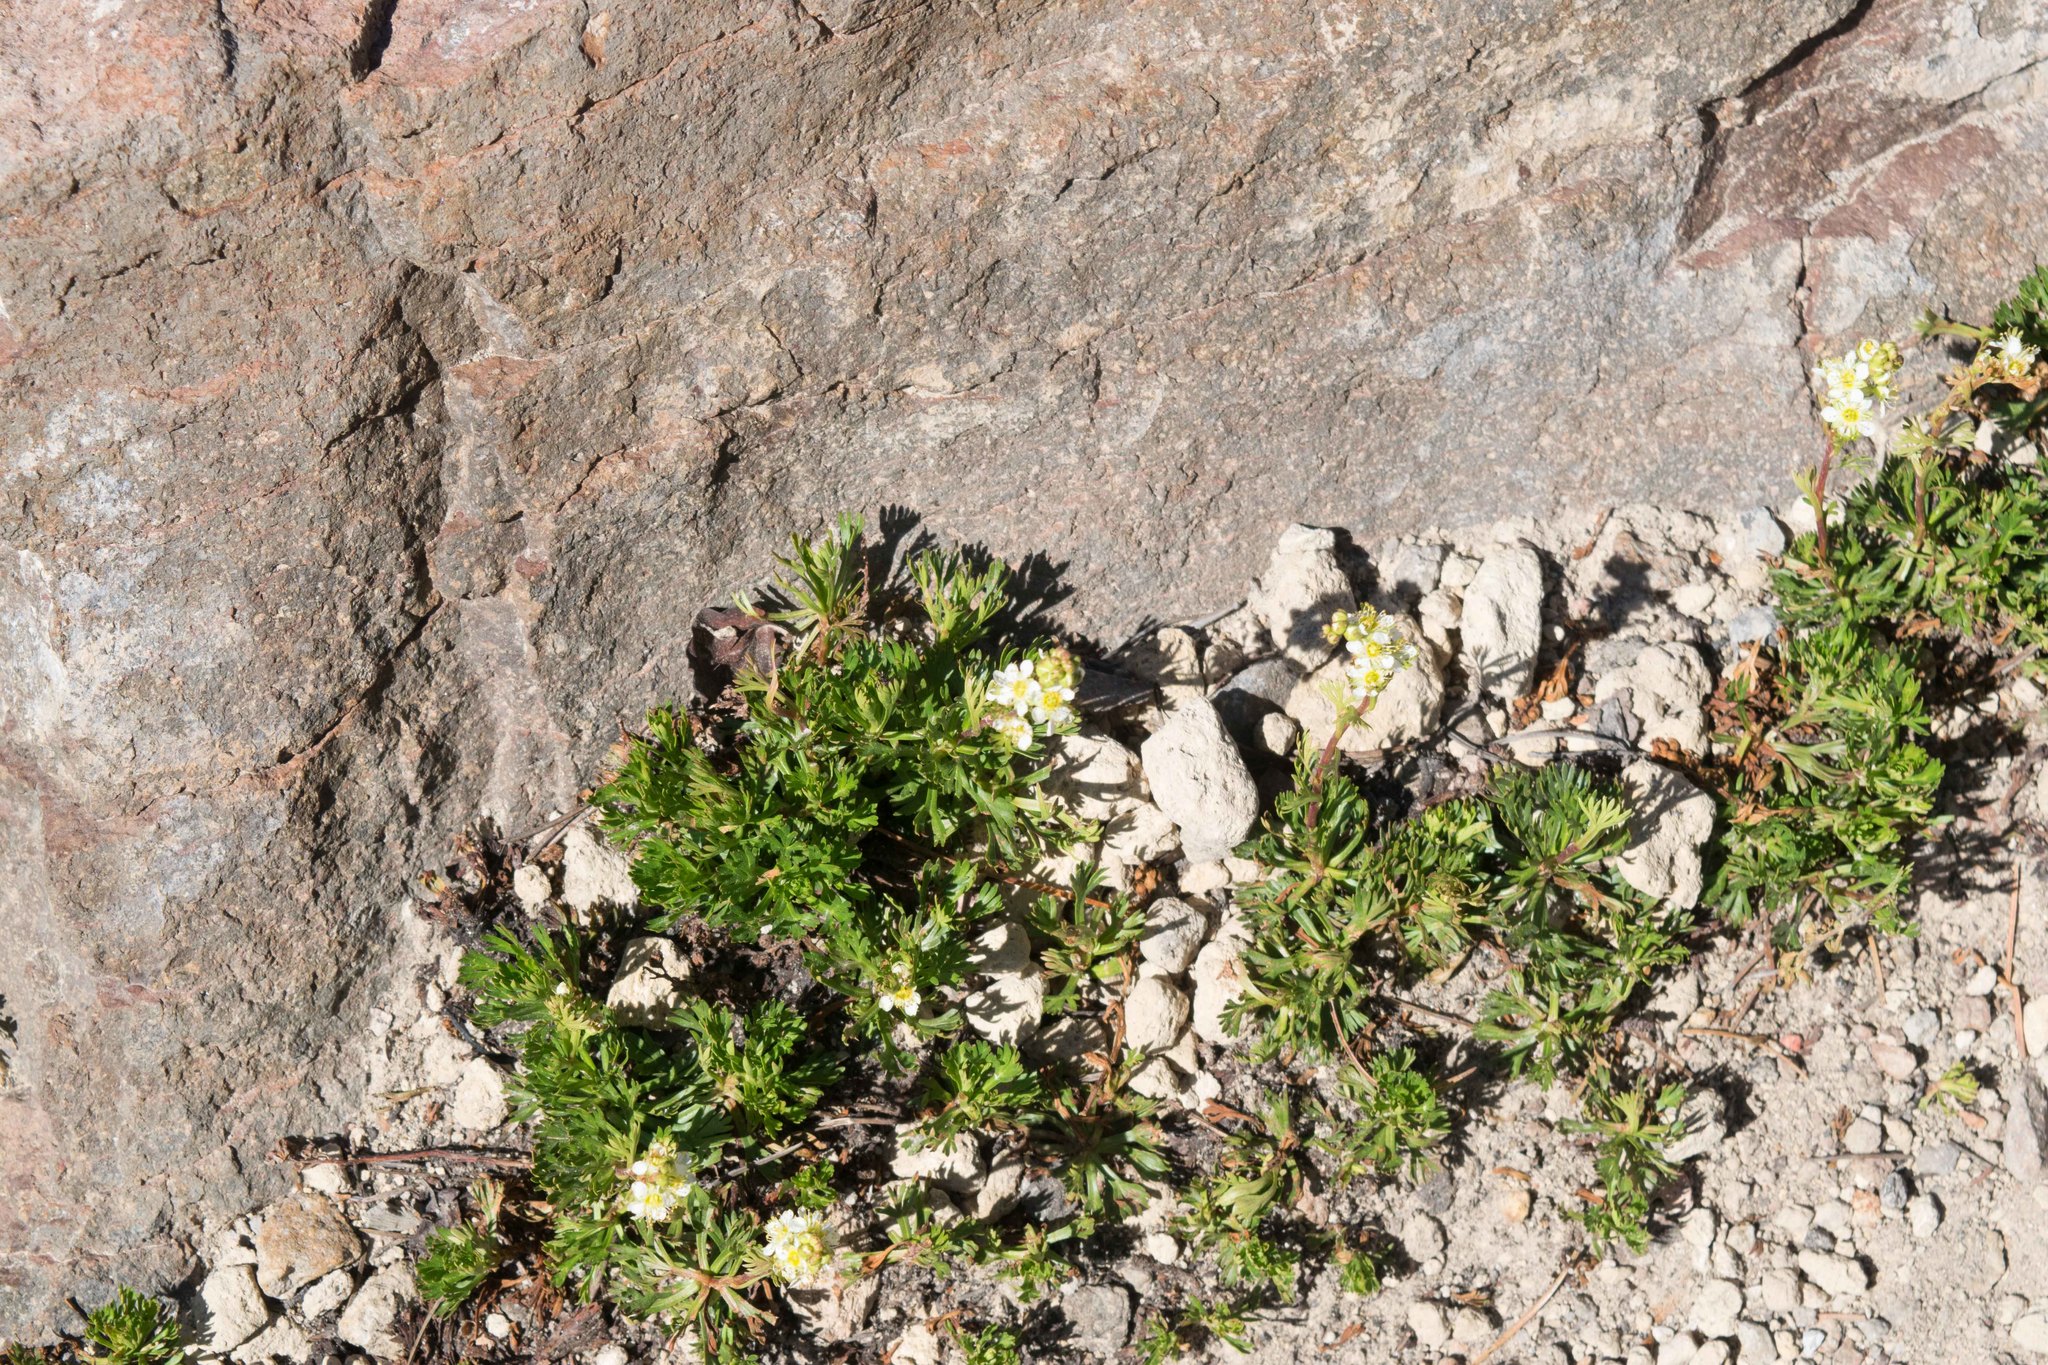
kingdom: Plantae
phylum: Tracheophyta
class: Magnoliopsida
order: Rosales
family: Rosaceae
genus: Luetkea
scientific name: Luetkea pectinata
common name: Partridgefoot
